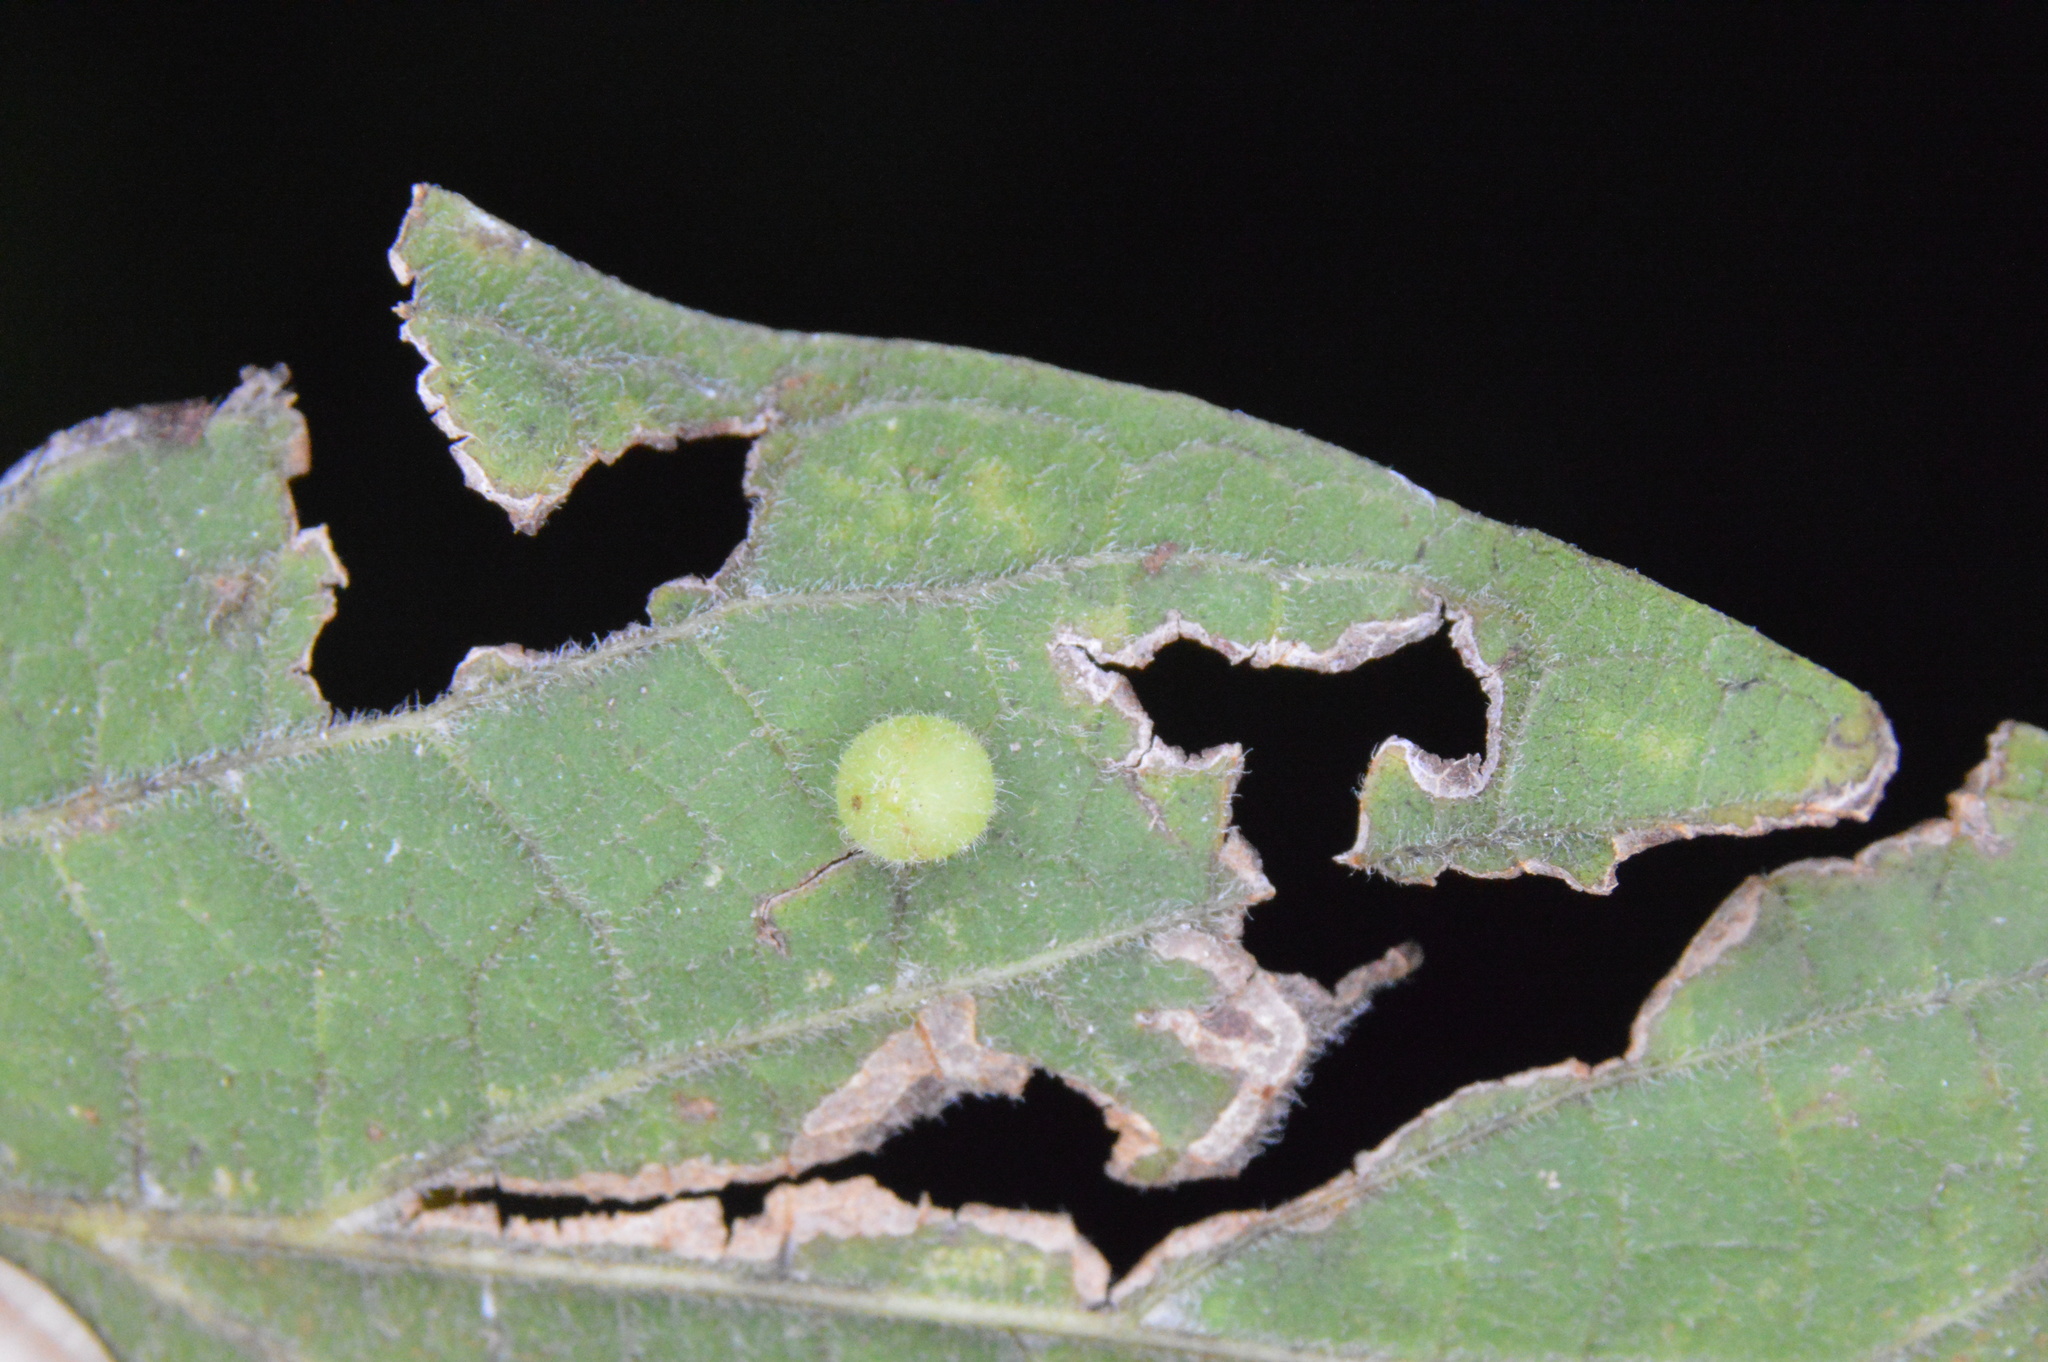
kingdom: Animalia
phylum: Arthropoda
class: Insecta
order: Diptera
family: Cecidomyiidae
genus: Celticecis
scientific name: Celticecis globosa
